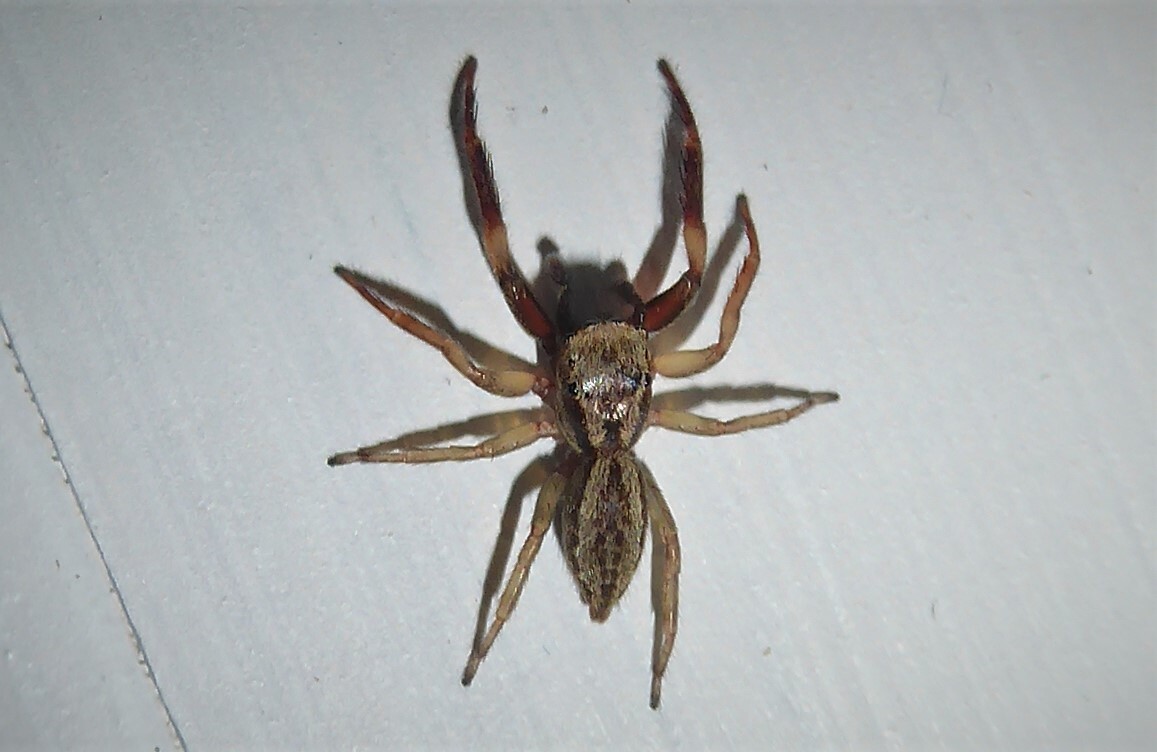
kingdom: Animalia
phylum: Arthropoda
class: Arachnida
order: Araneae
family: Salticidae
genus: Trite
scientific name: Trite auricoma
